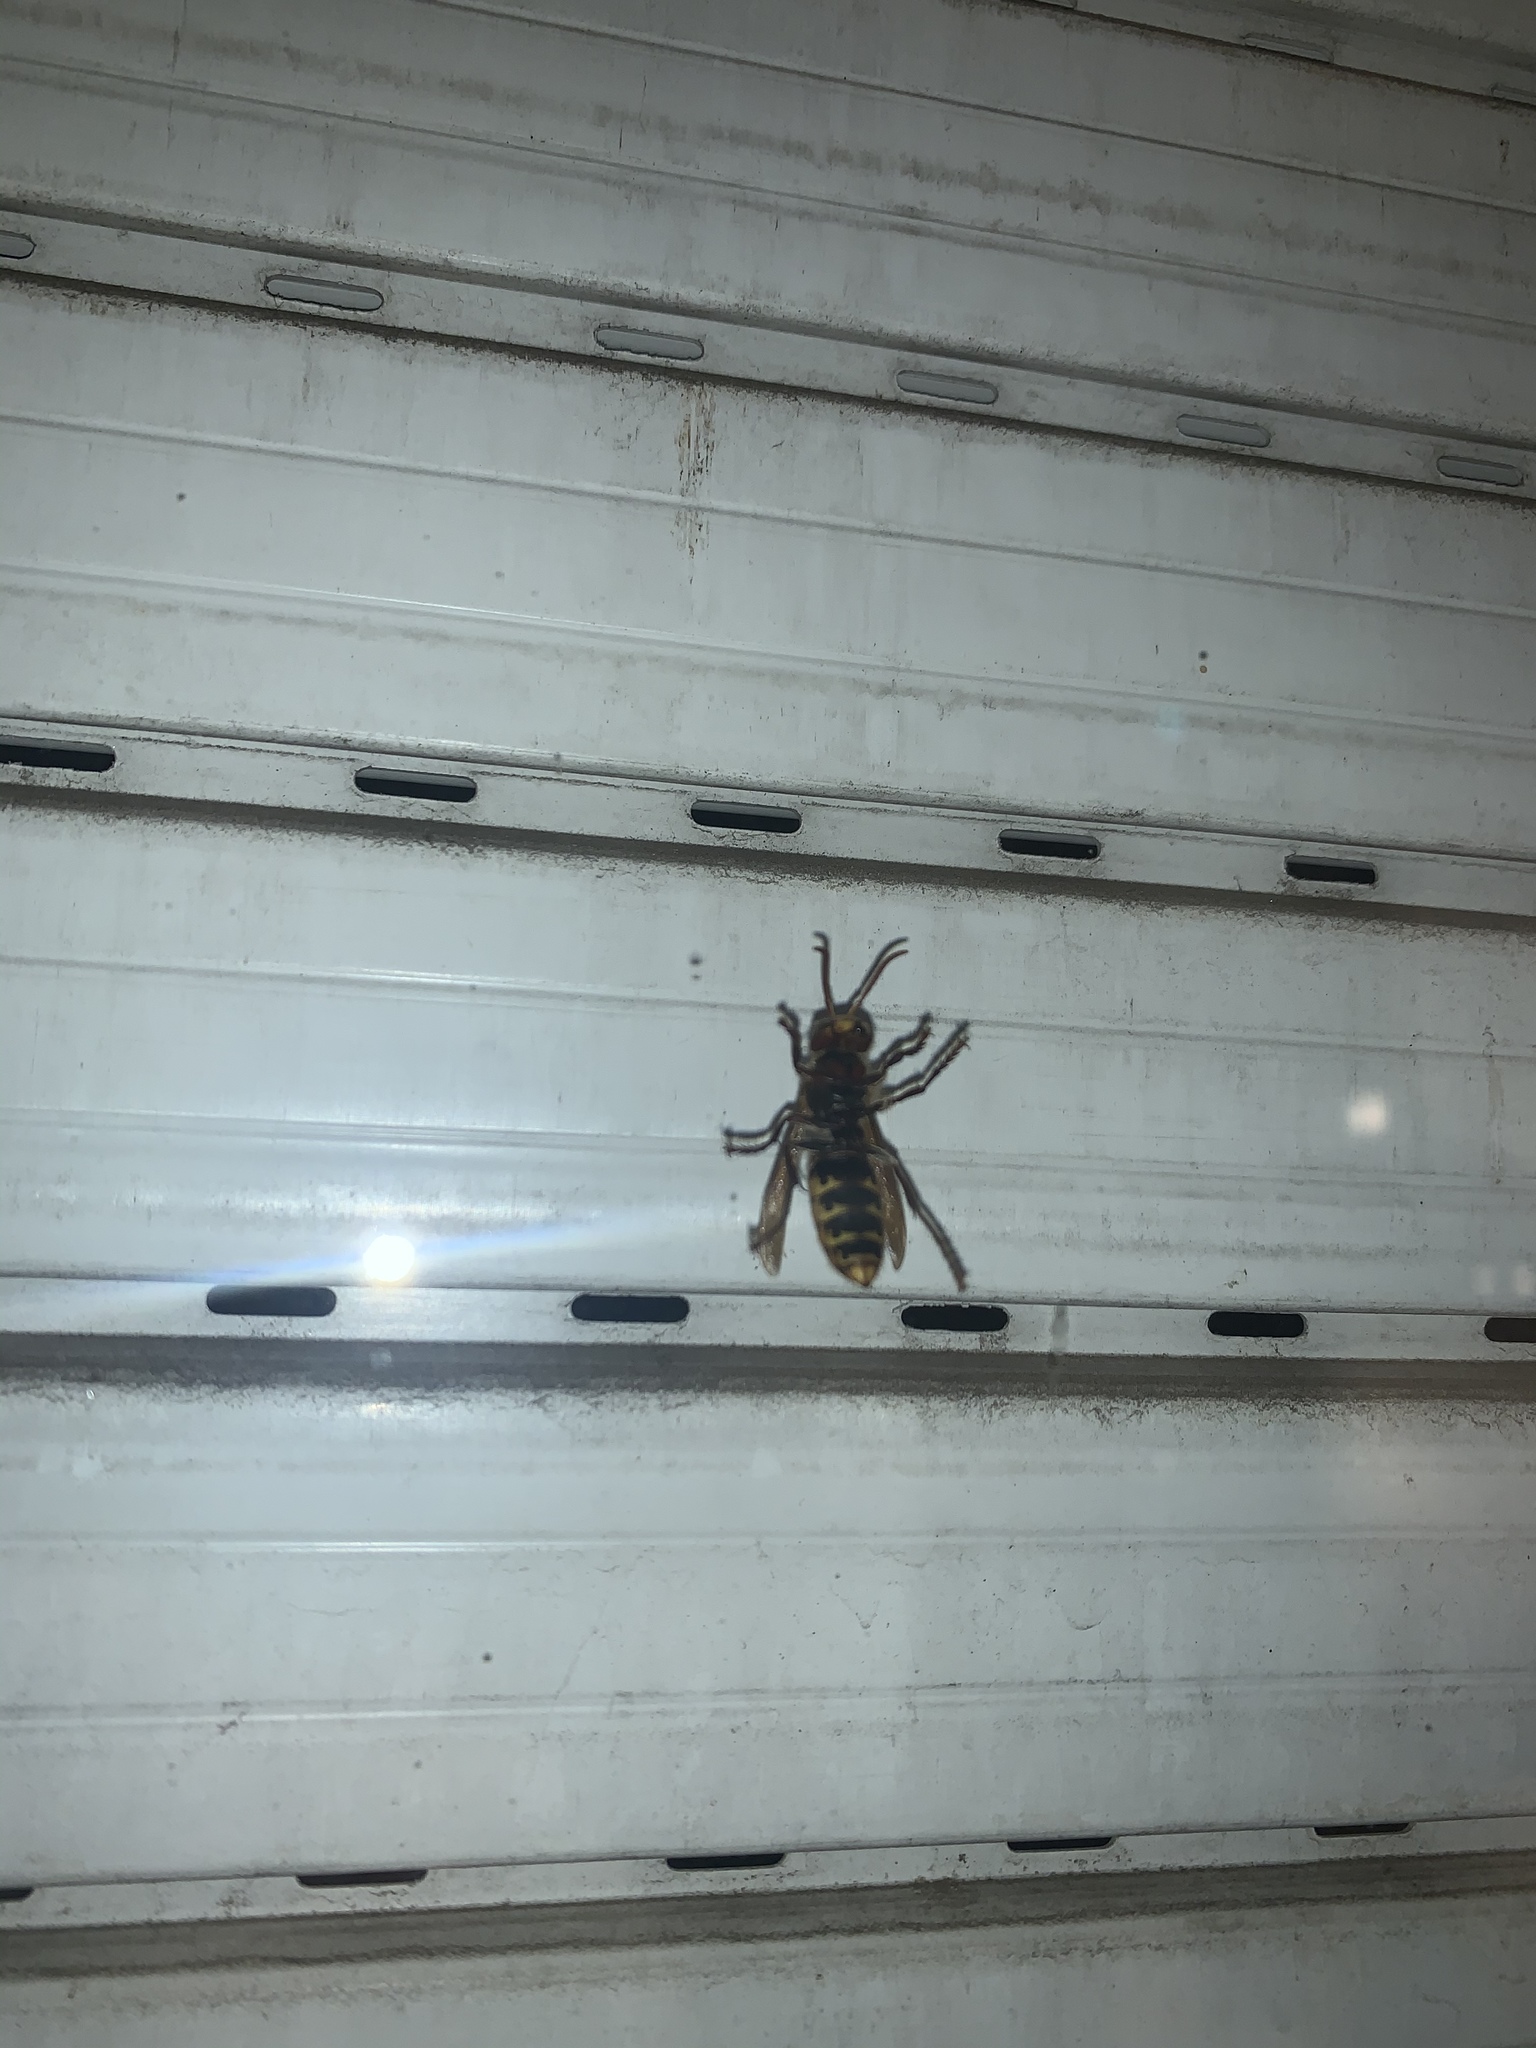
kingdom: Animalia
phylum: Arthropoda
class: Insecta
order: Hymenoptera
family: Vespidae
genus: Vespa
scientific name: Vespa crabro
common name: Hornet
